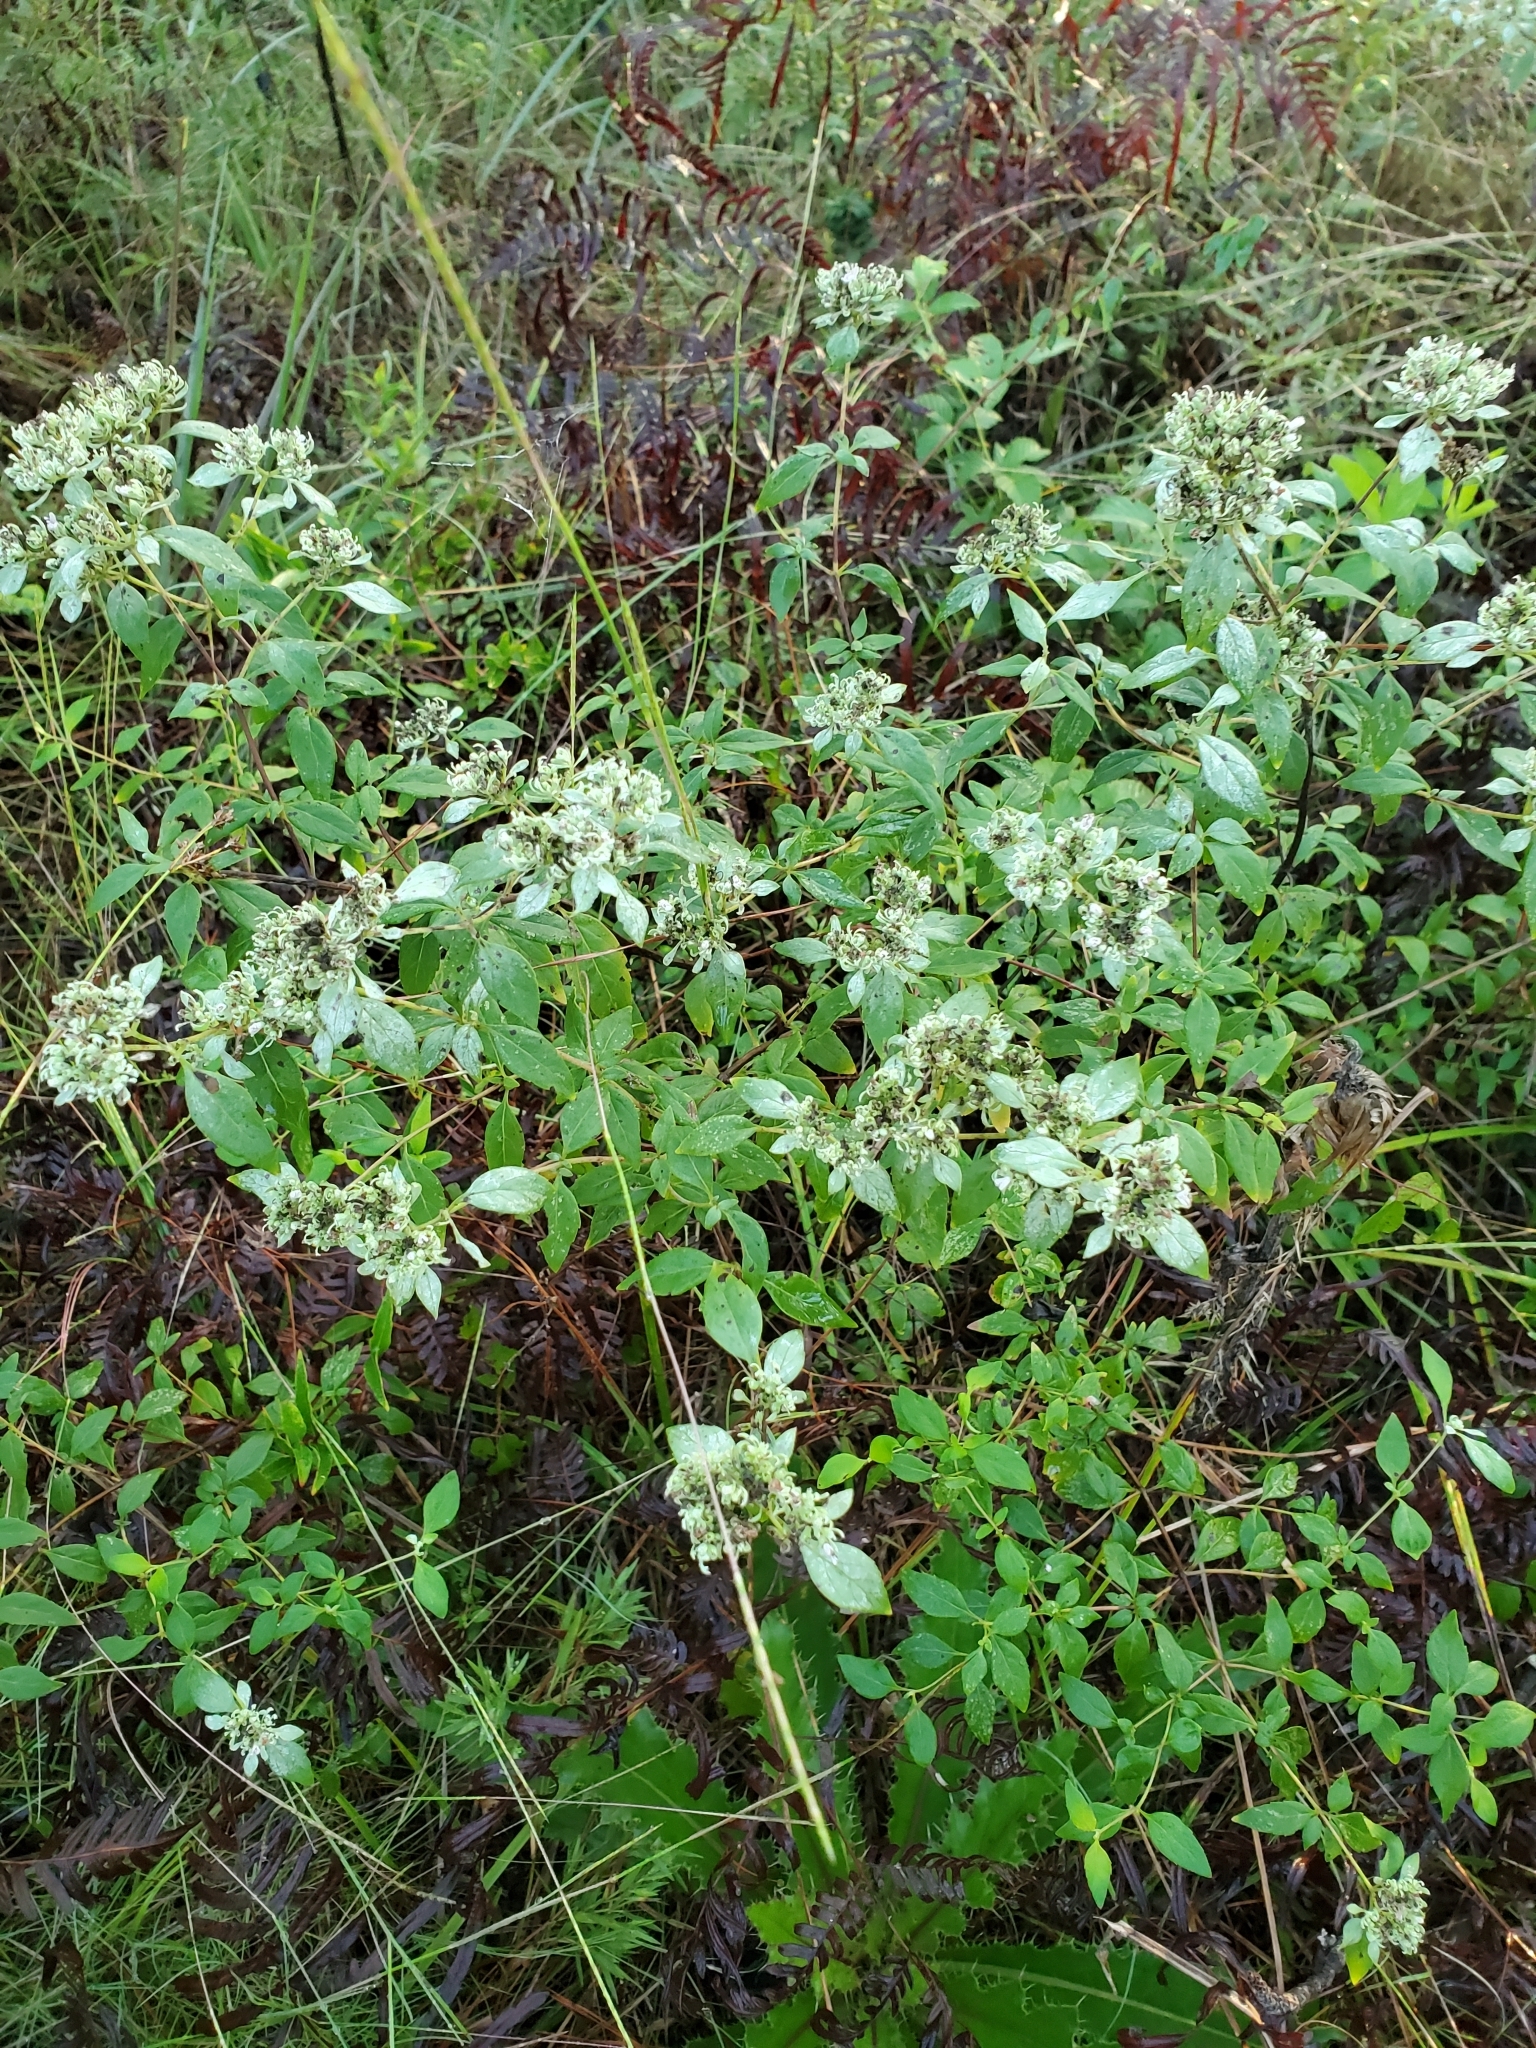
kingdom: Plantae
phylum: Tracheophyta
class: Magnoliopsida
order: Lamiales
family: Lamiaceae
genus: Pycnanthemum
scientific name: Pycnanthemum albescens
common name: White-leaf mountain-mint
